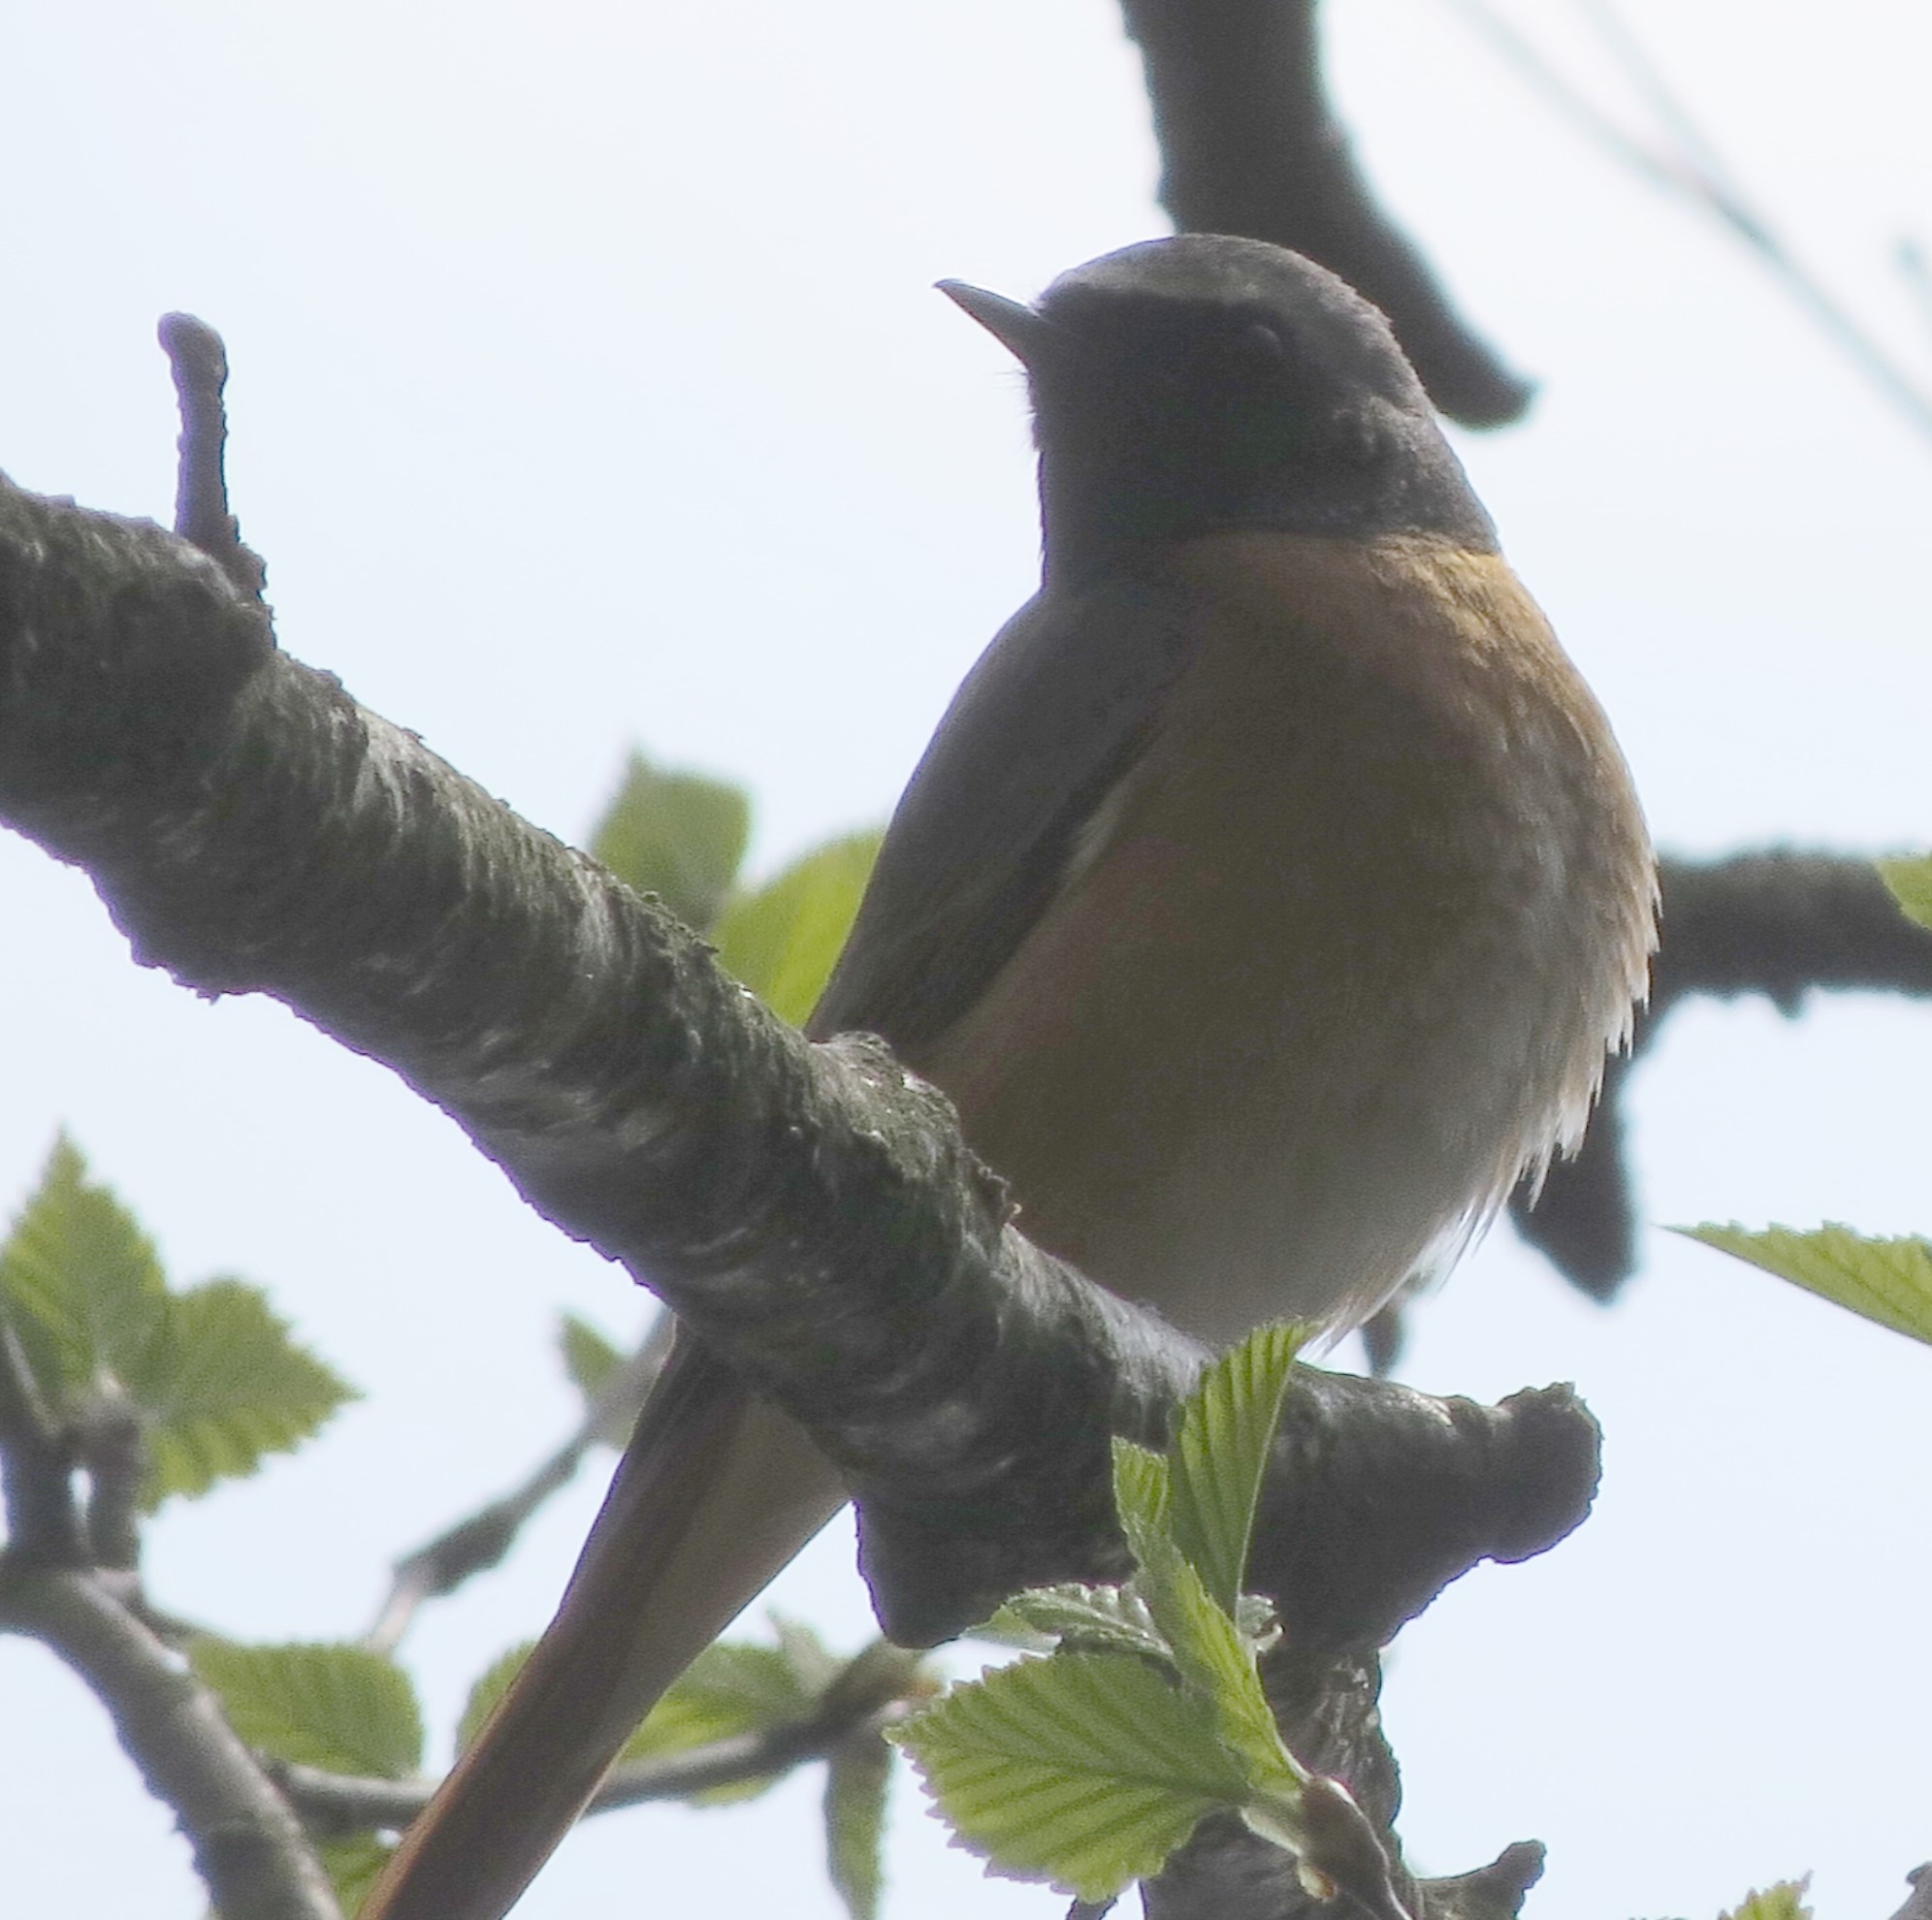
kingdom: Animalia
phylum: Chordata
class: Aves
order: Passeriformes
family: Muscicapidae
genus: Phoenicurus
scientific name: Phoenicurus phoenicurus
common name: Common redstart
